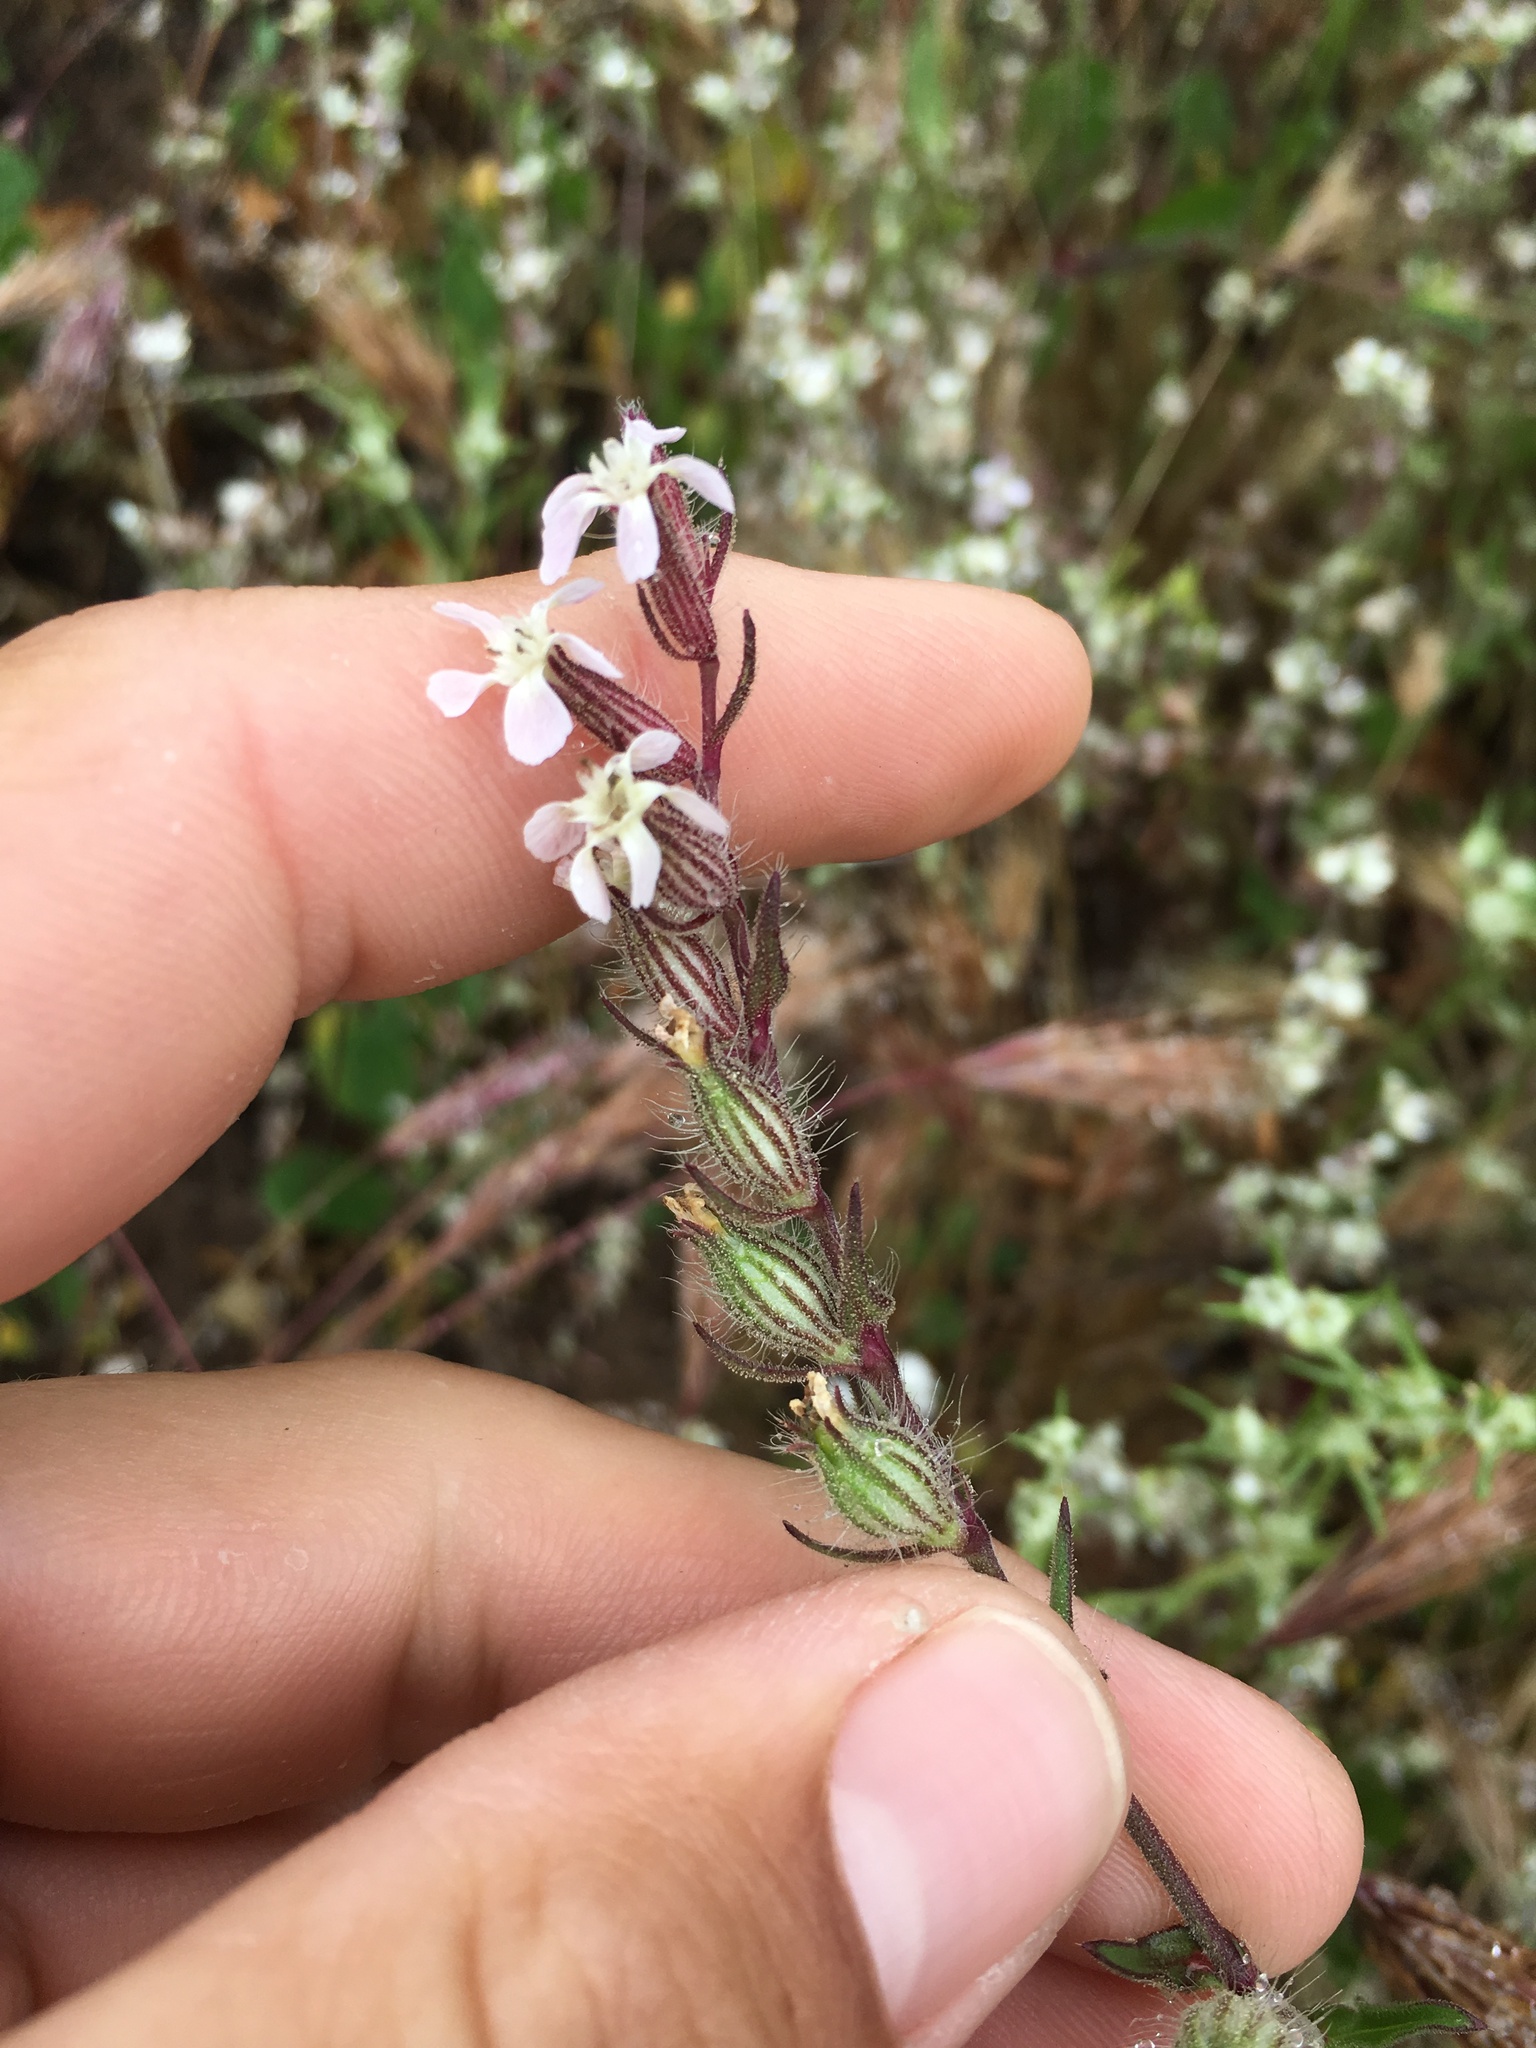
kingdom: Plantae
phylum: Tracheophyta
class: Magnoliopsida
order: Caryophyllales
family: Caryophyllaceae
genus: Silene
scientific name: Silene gallica
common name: Small-flowered catchfly
